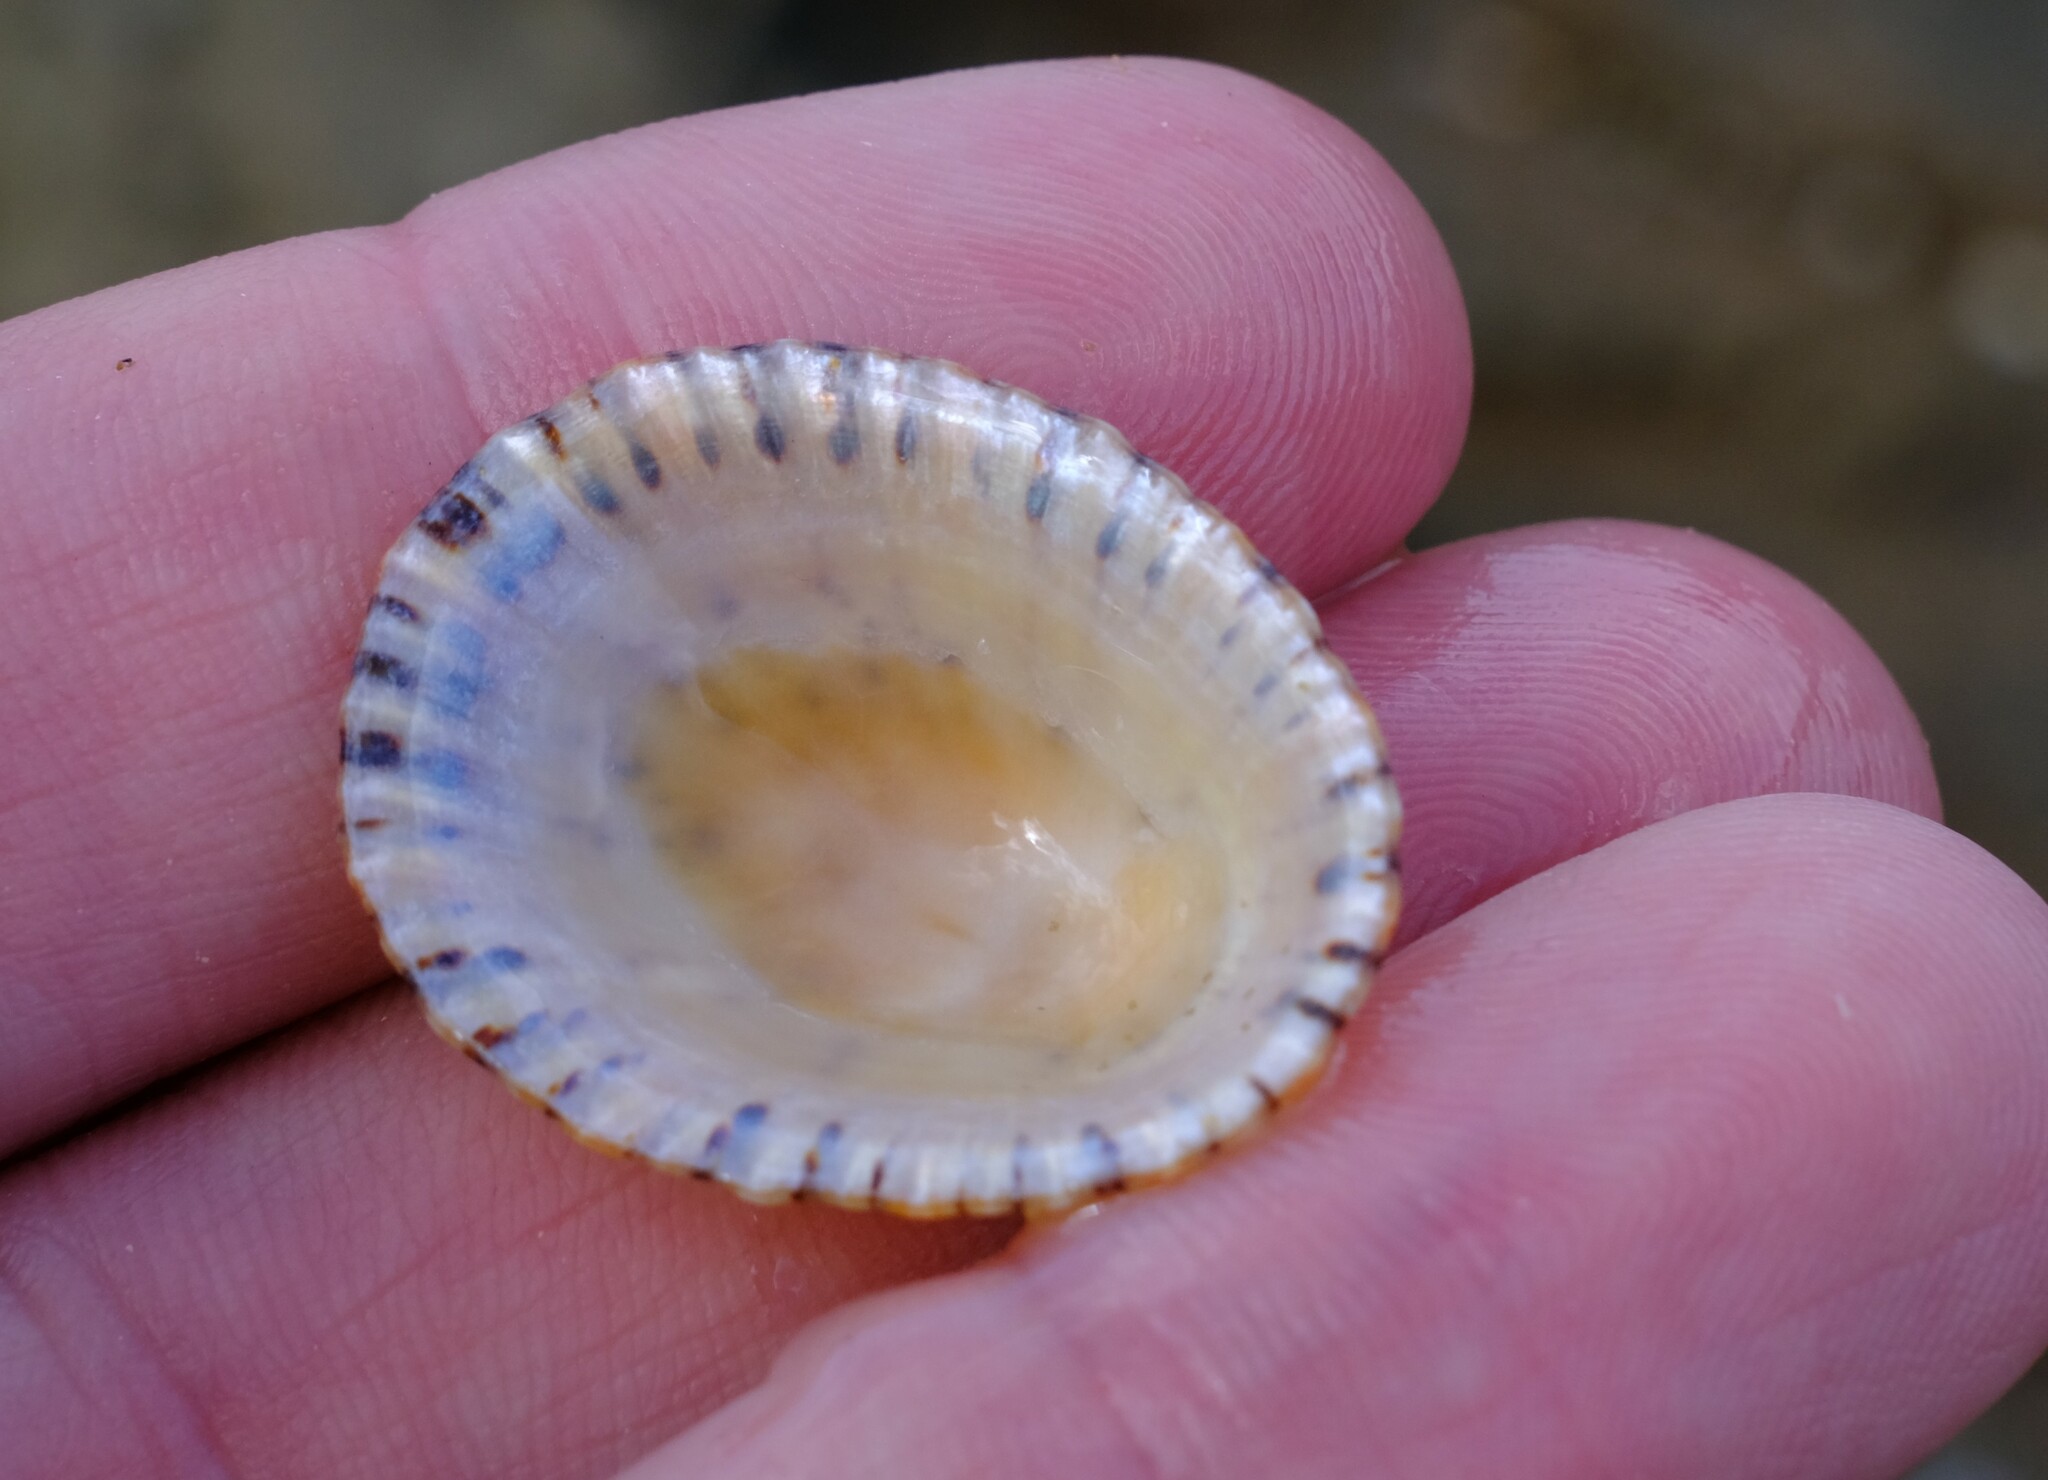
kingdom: Animalia
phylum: Mollusca
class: Gastropoda
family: Nacellidae
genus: Cellana
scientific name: Cellana tramoserica
